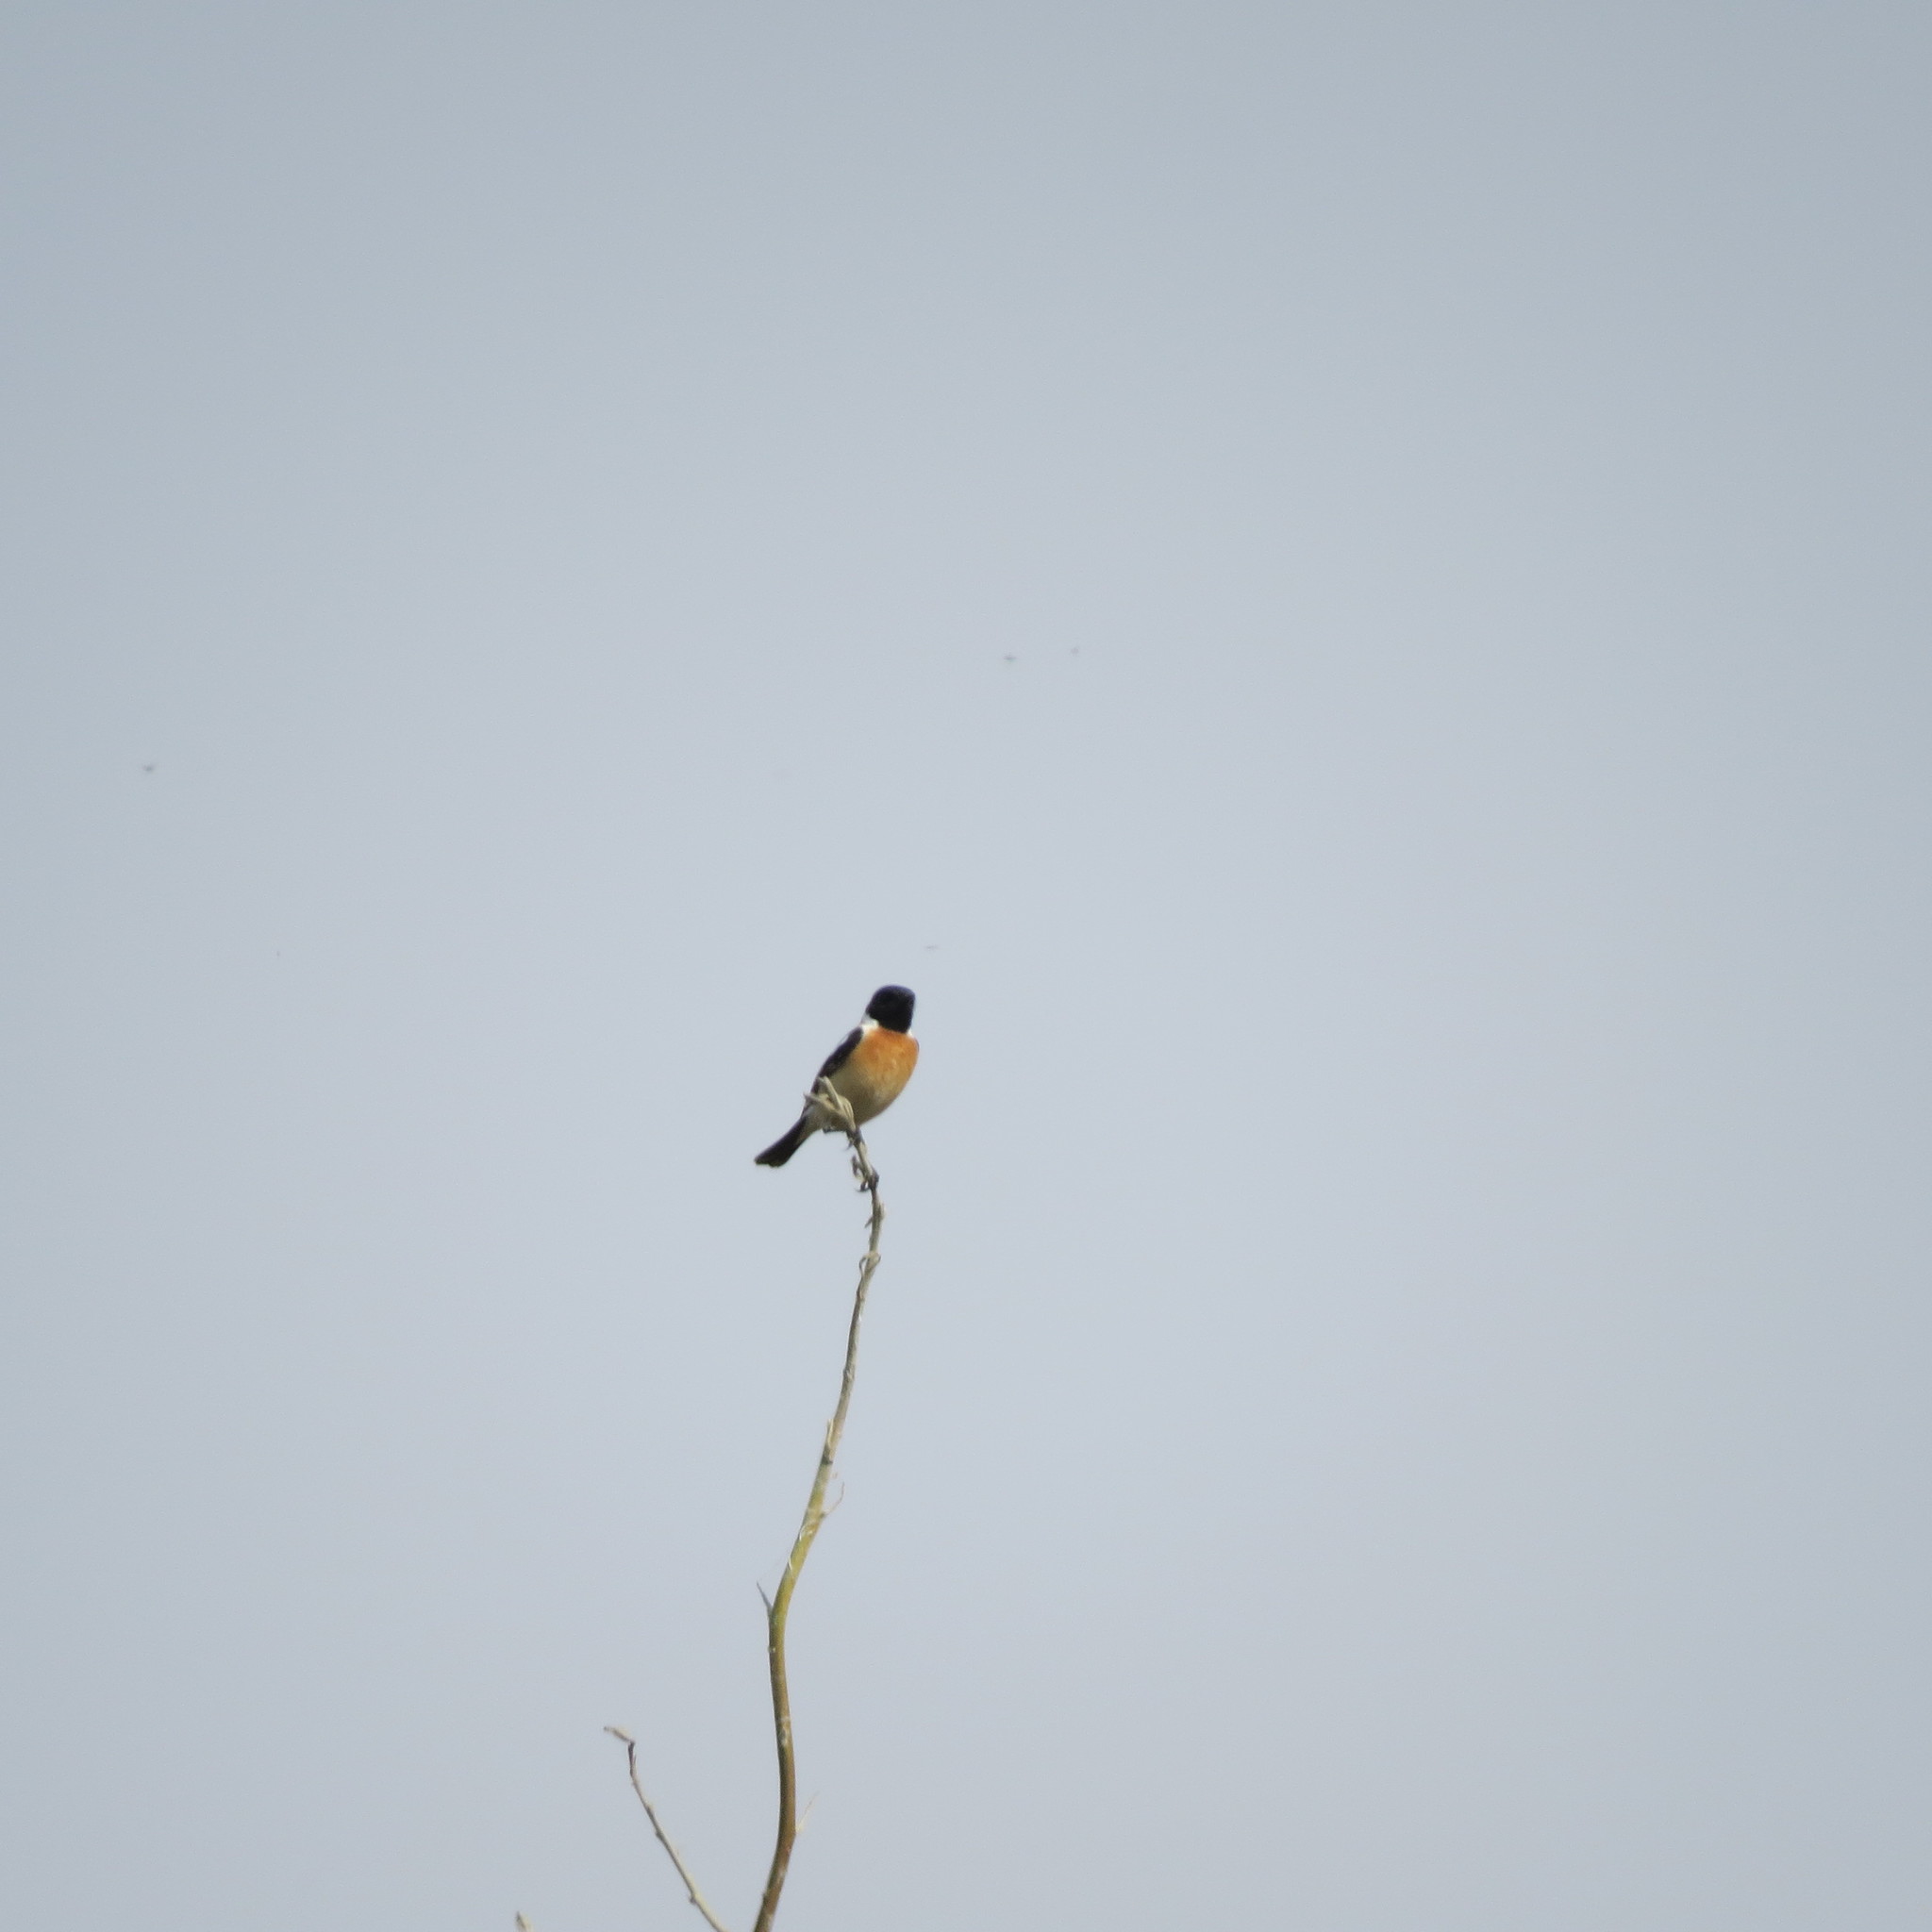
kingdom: Animalia
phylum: Chordata
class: Aves
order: Passeriformes
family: Muscicapidae
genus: Saxicola
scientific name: Saxicola maurus
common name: Siberian stonechat
